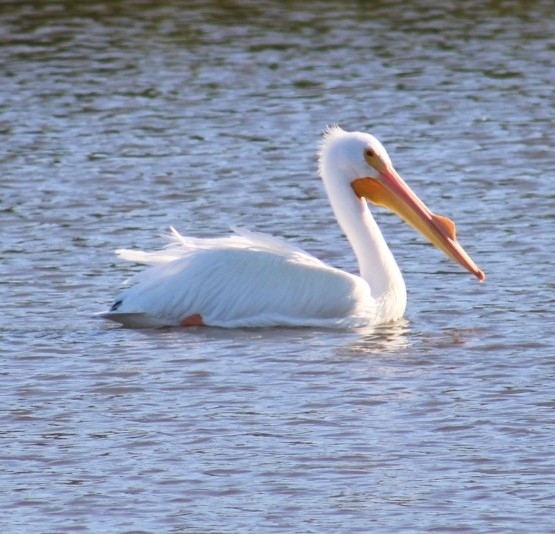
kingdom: Animalia
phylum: Chordata
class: Aves
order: Pelecaniformes
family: Pelecanidae
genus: Pelecanus
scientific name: Pelecanus erythrorhynchos
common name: American white pelican
